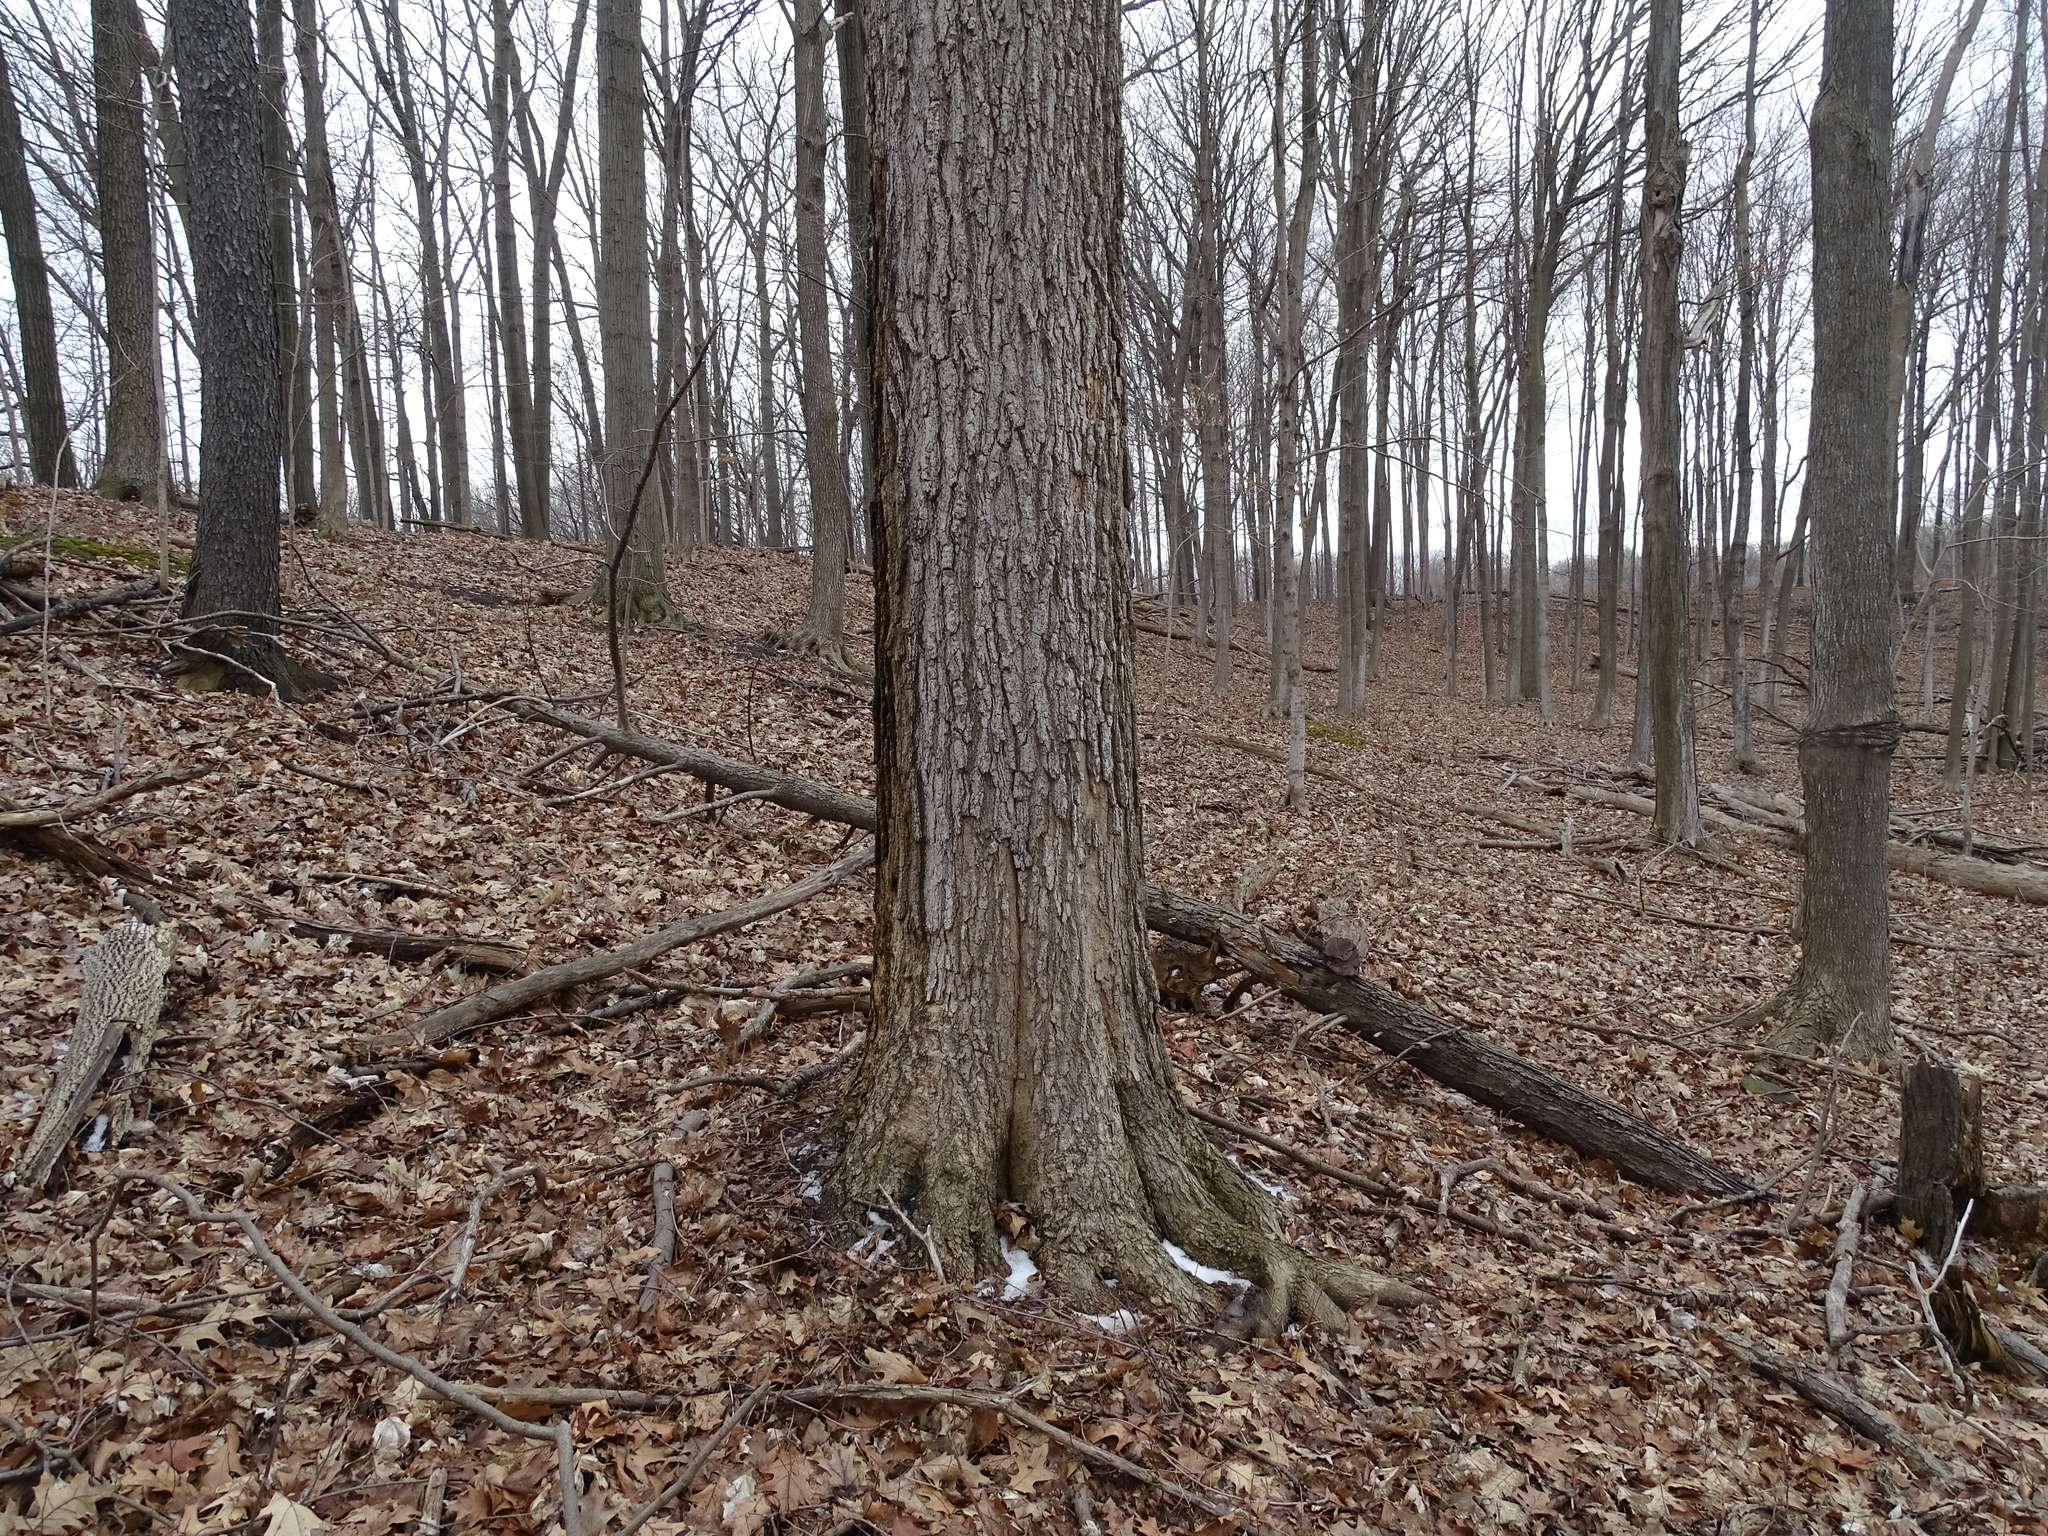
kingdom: Plantae
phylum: Tracheophyta
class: Magnoliopsida
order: Sapindales
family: Sapindaceae
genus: Acer
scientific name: Acer saccharum
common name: Sugar maple
